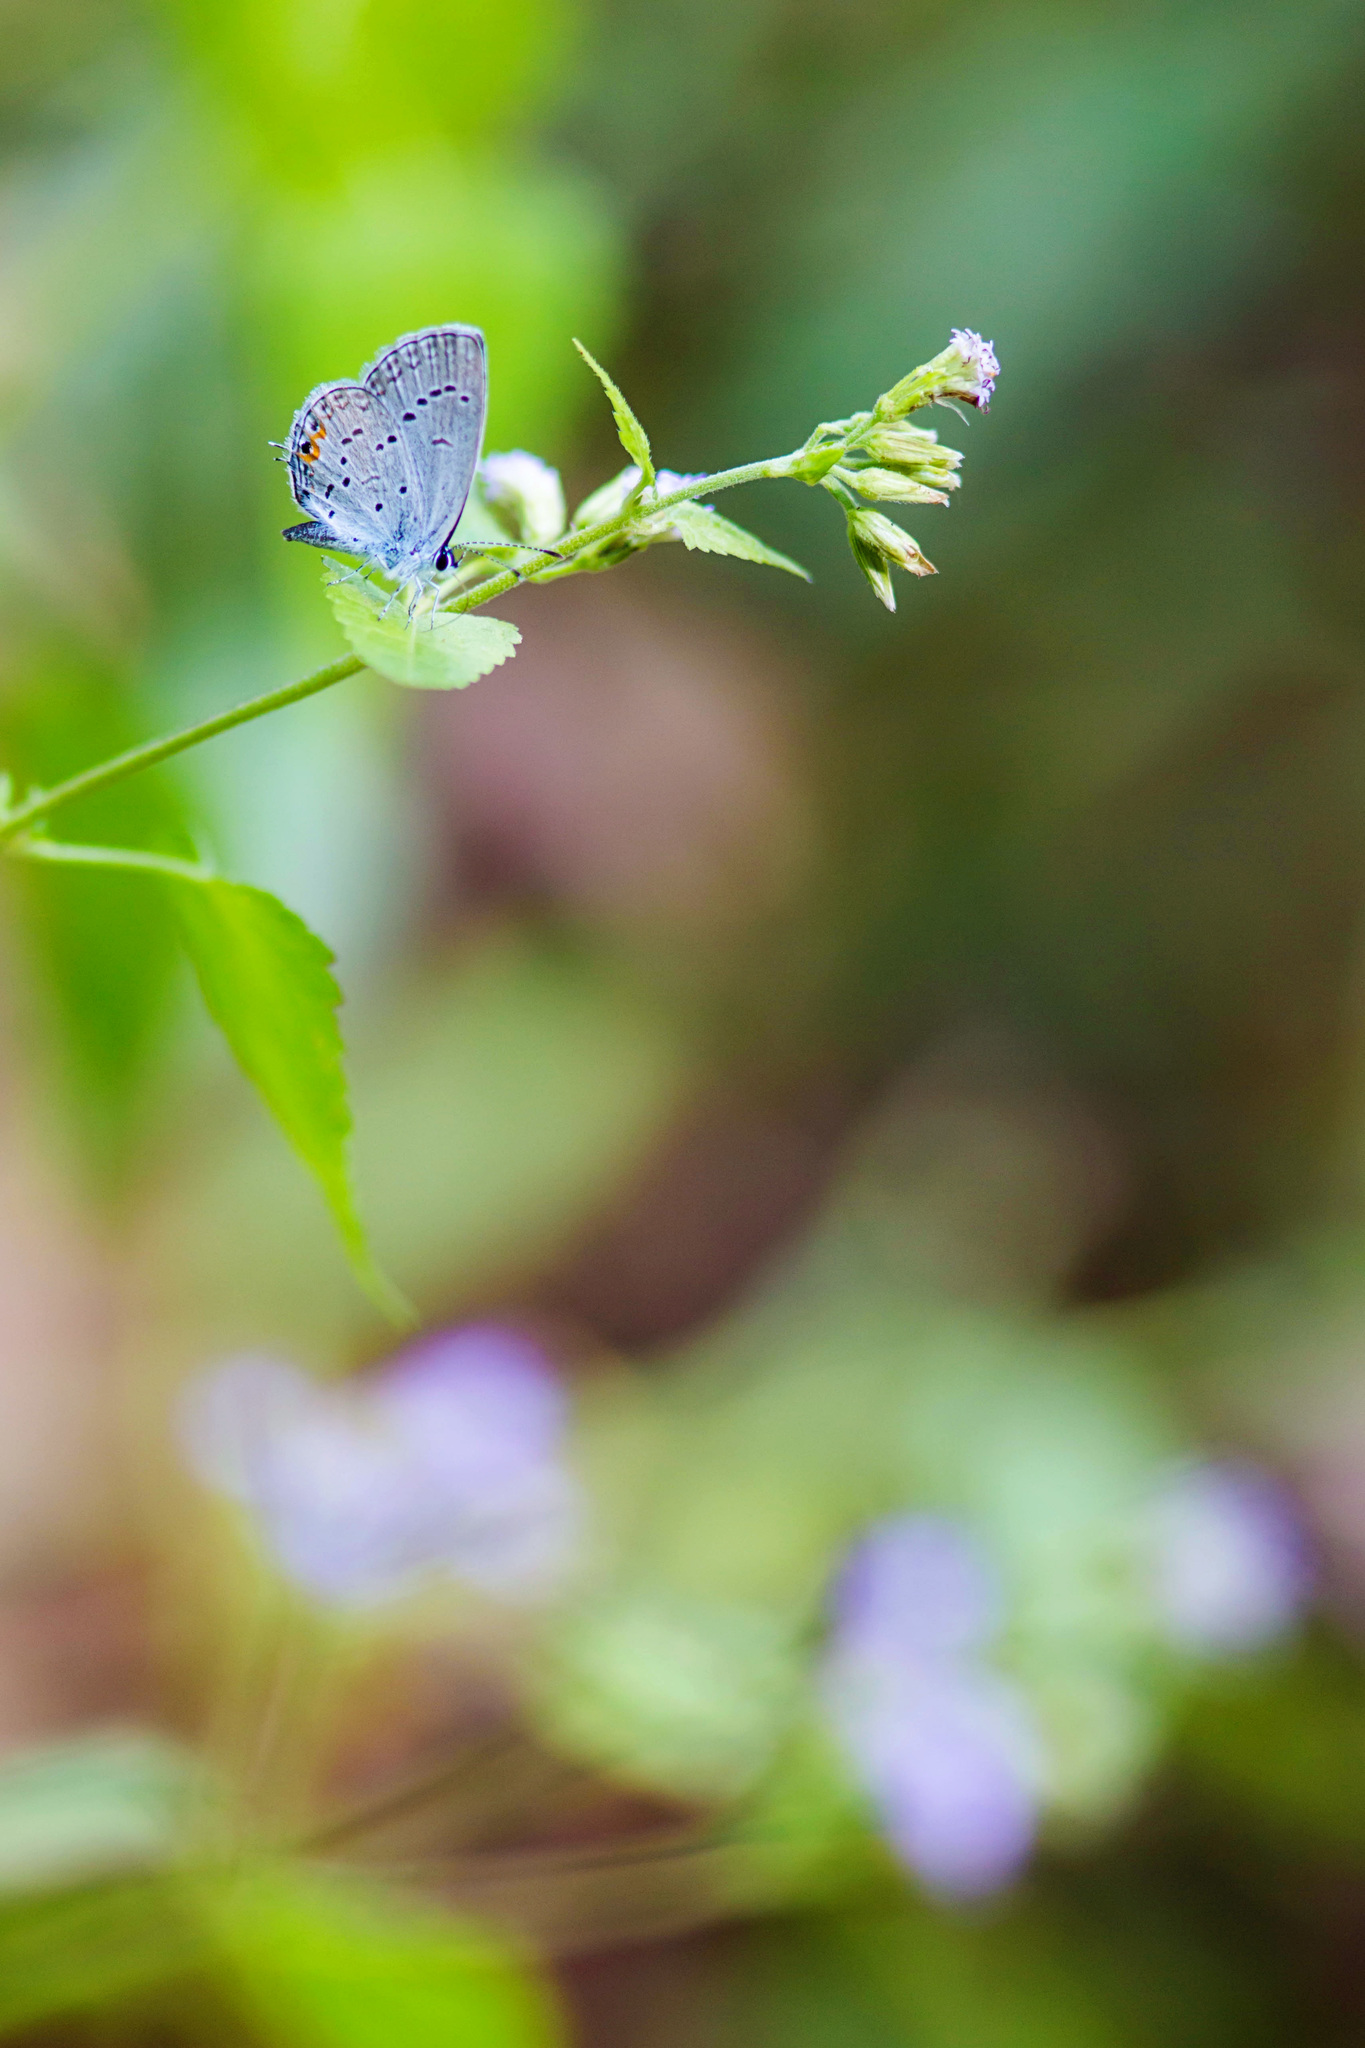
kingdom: Animalia
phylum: Arthropoda
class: Insecta
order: Lepidoptera
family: Lycaenidae
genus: Elkalyce
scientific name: Elkalyce comyntas
